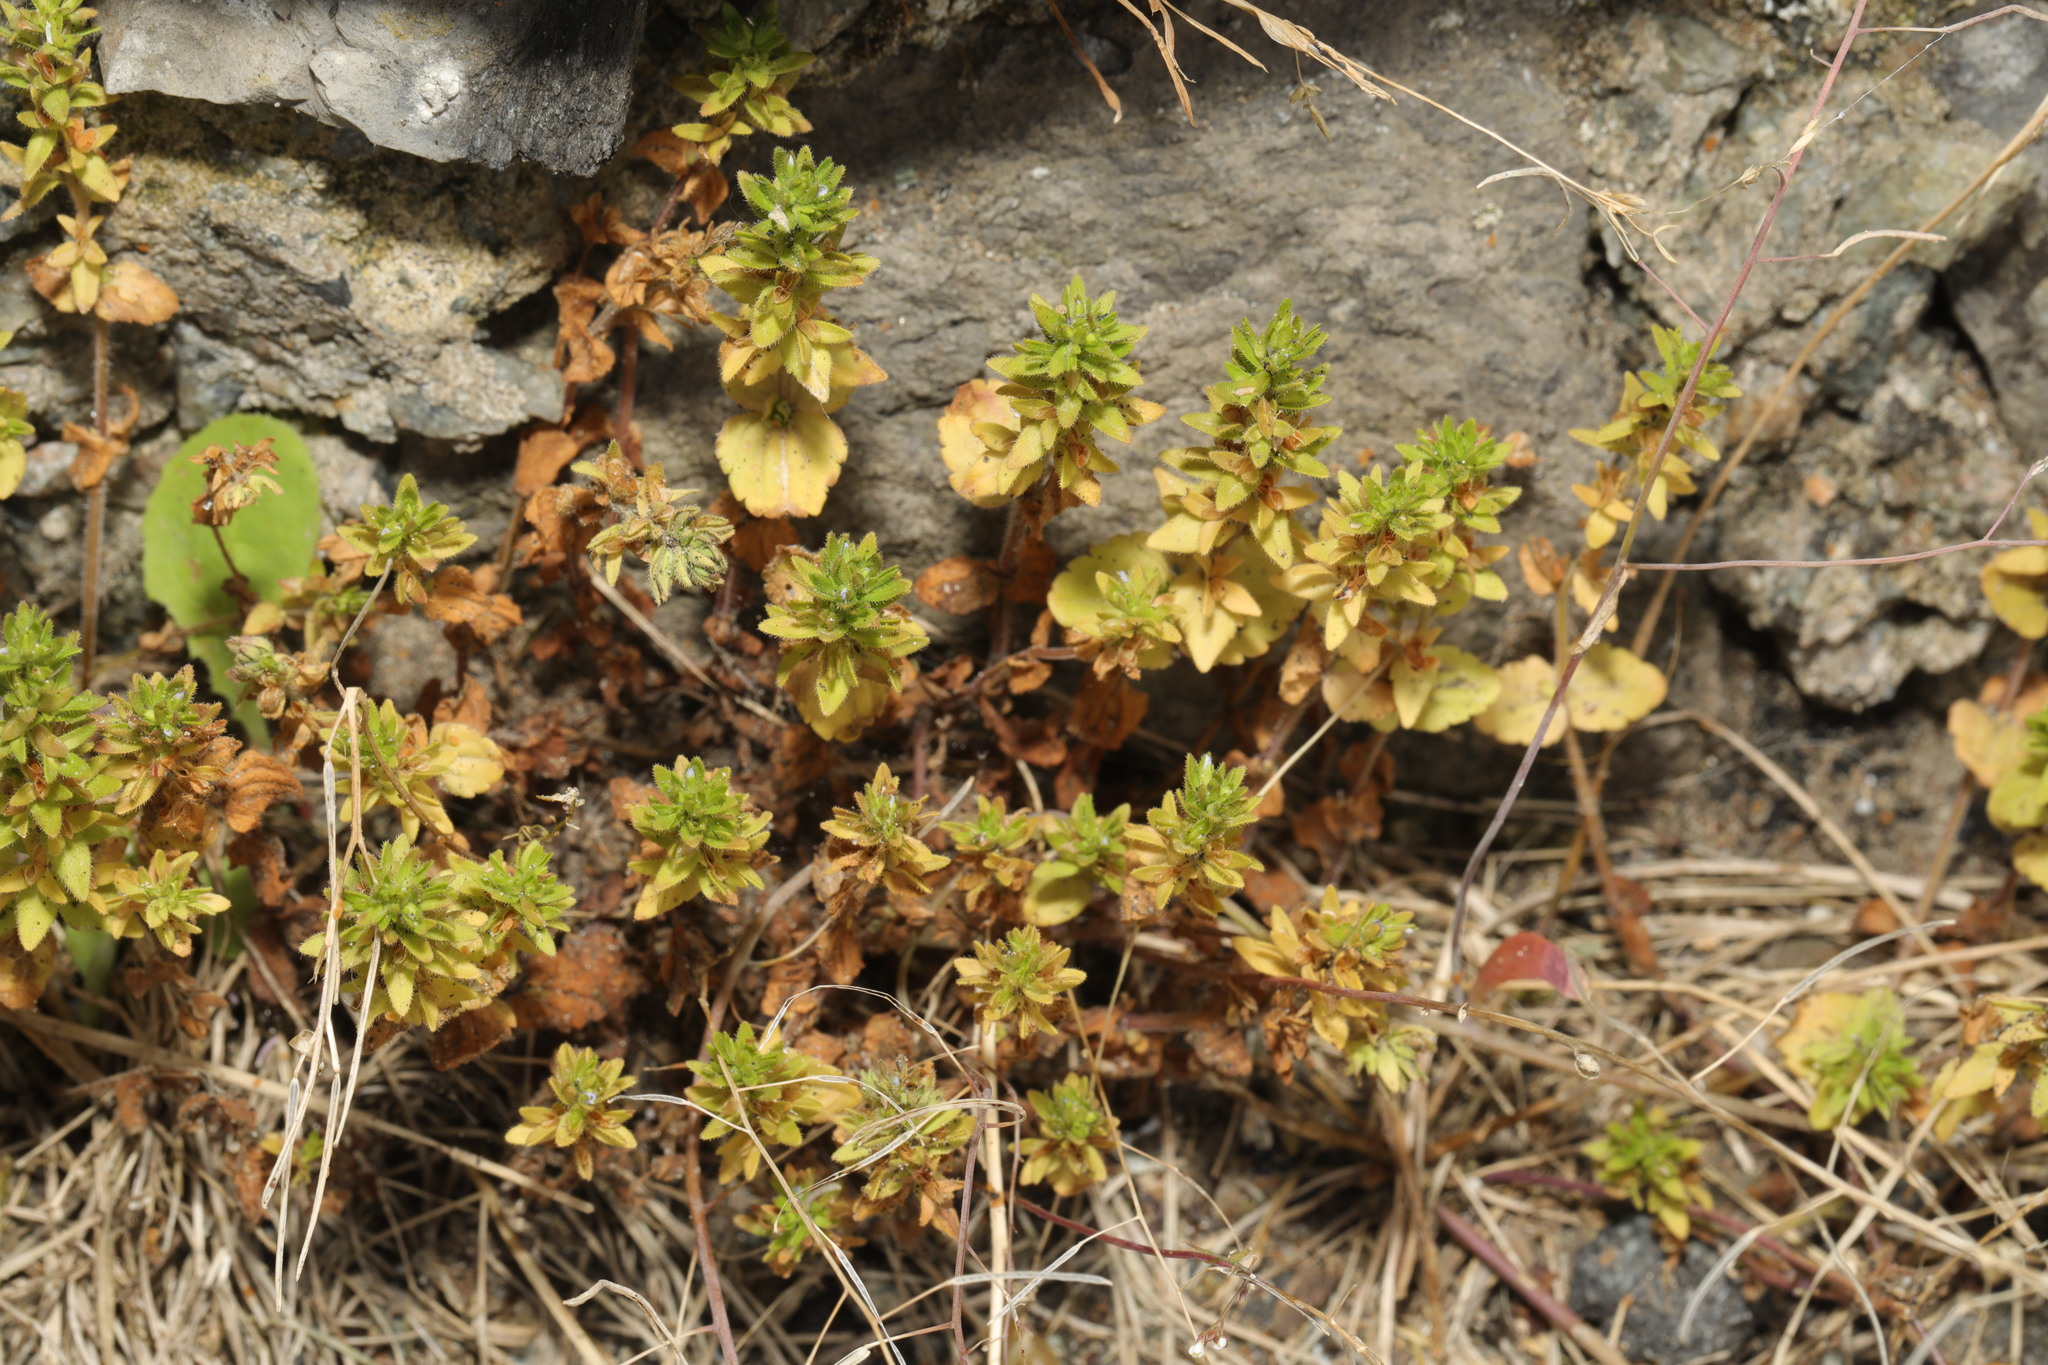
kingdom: Plantae
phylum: Tracheophyta
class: Magnoliopsida
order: Lamiales
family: Plantaginaceae
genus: Veronica
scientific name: Veronica arvensis
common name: Corn speedwell
